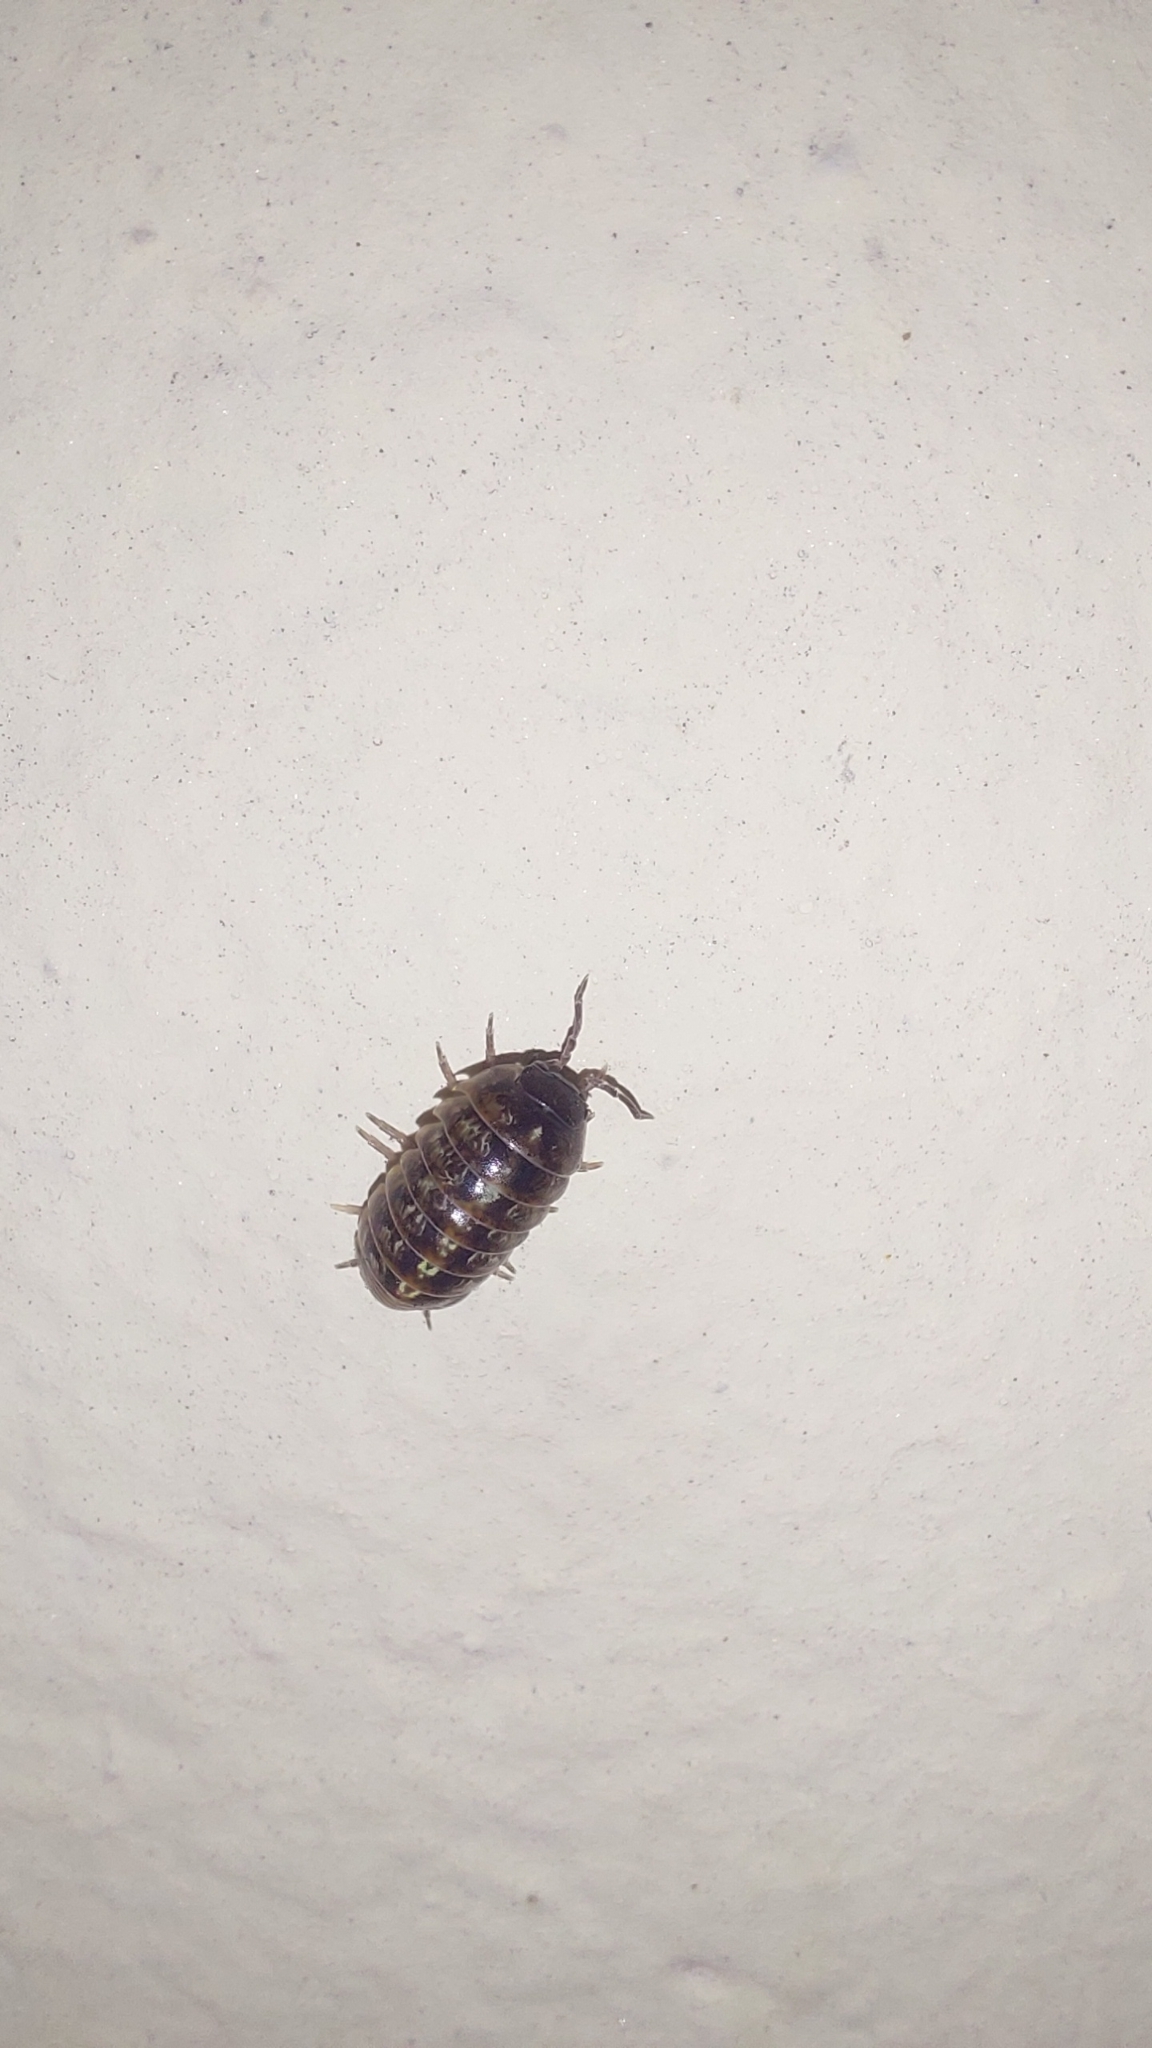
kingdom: Animalia
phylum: Arthropoda
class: Malacostraca
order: Isopoda
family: Armadillidiidae
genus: Armadillidium
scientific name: Armadillidium vulgare
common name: Common pill woodlouse
